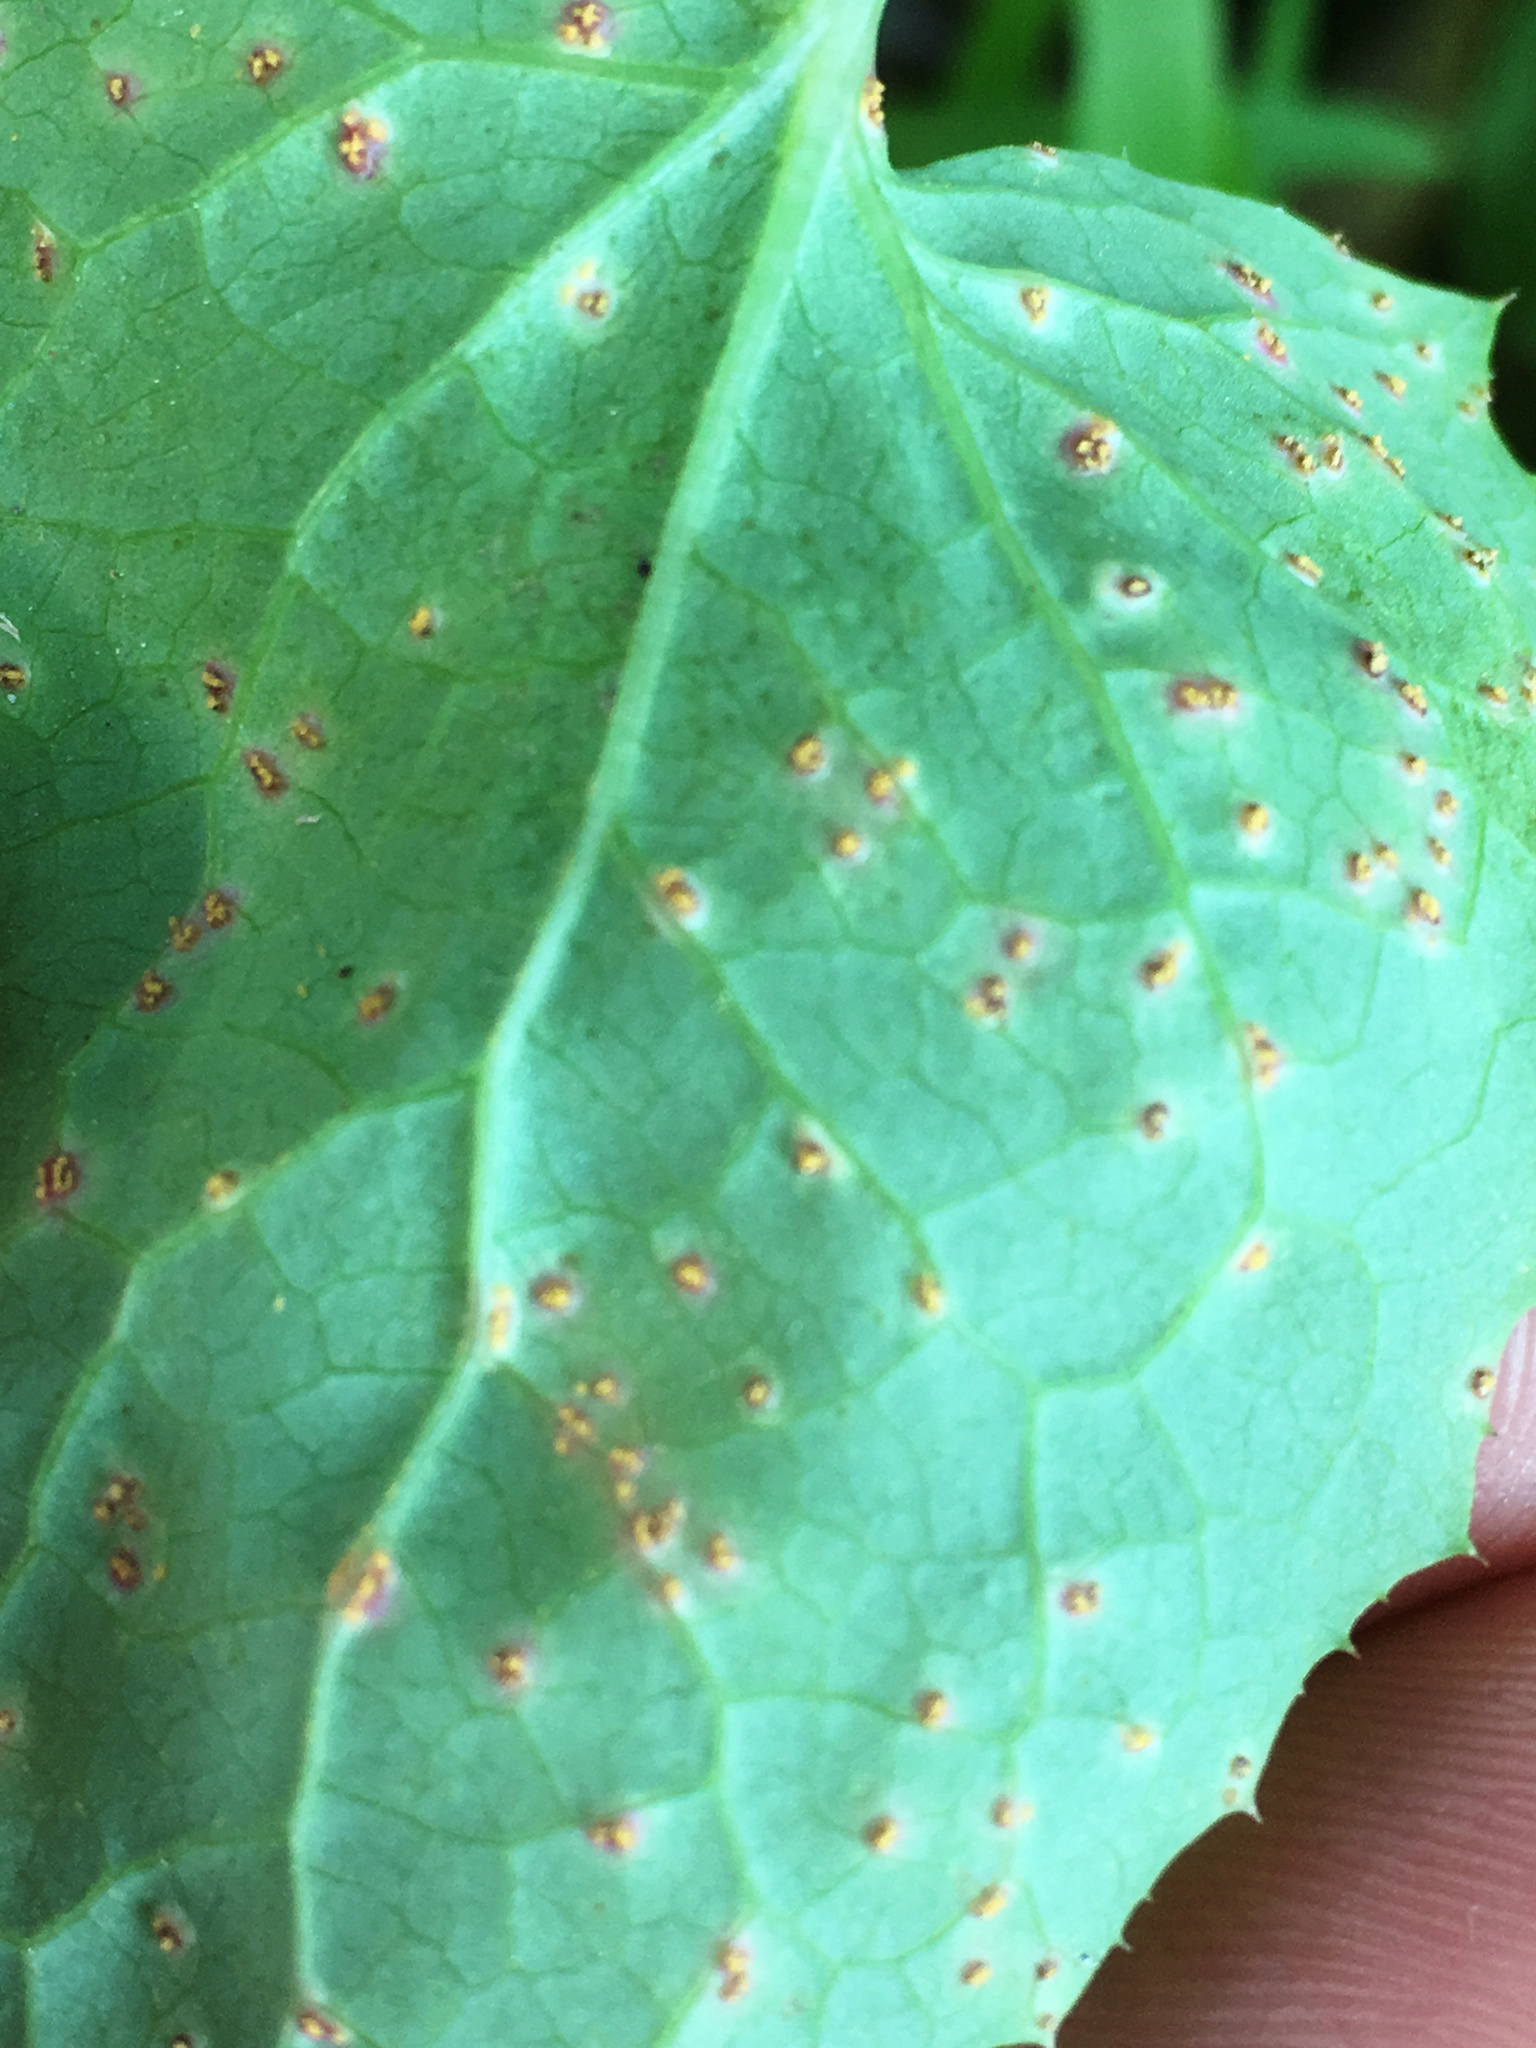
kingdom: Fungi
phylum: Basidiomycota
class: Pucciniomycetes
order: Pucciniales
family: Pucciniaceae
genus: Peristemma
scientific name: Peristemma pseudosphaeria
